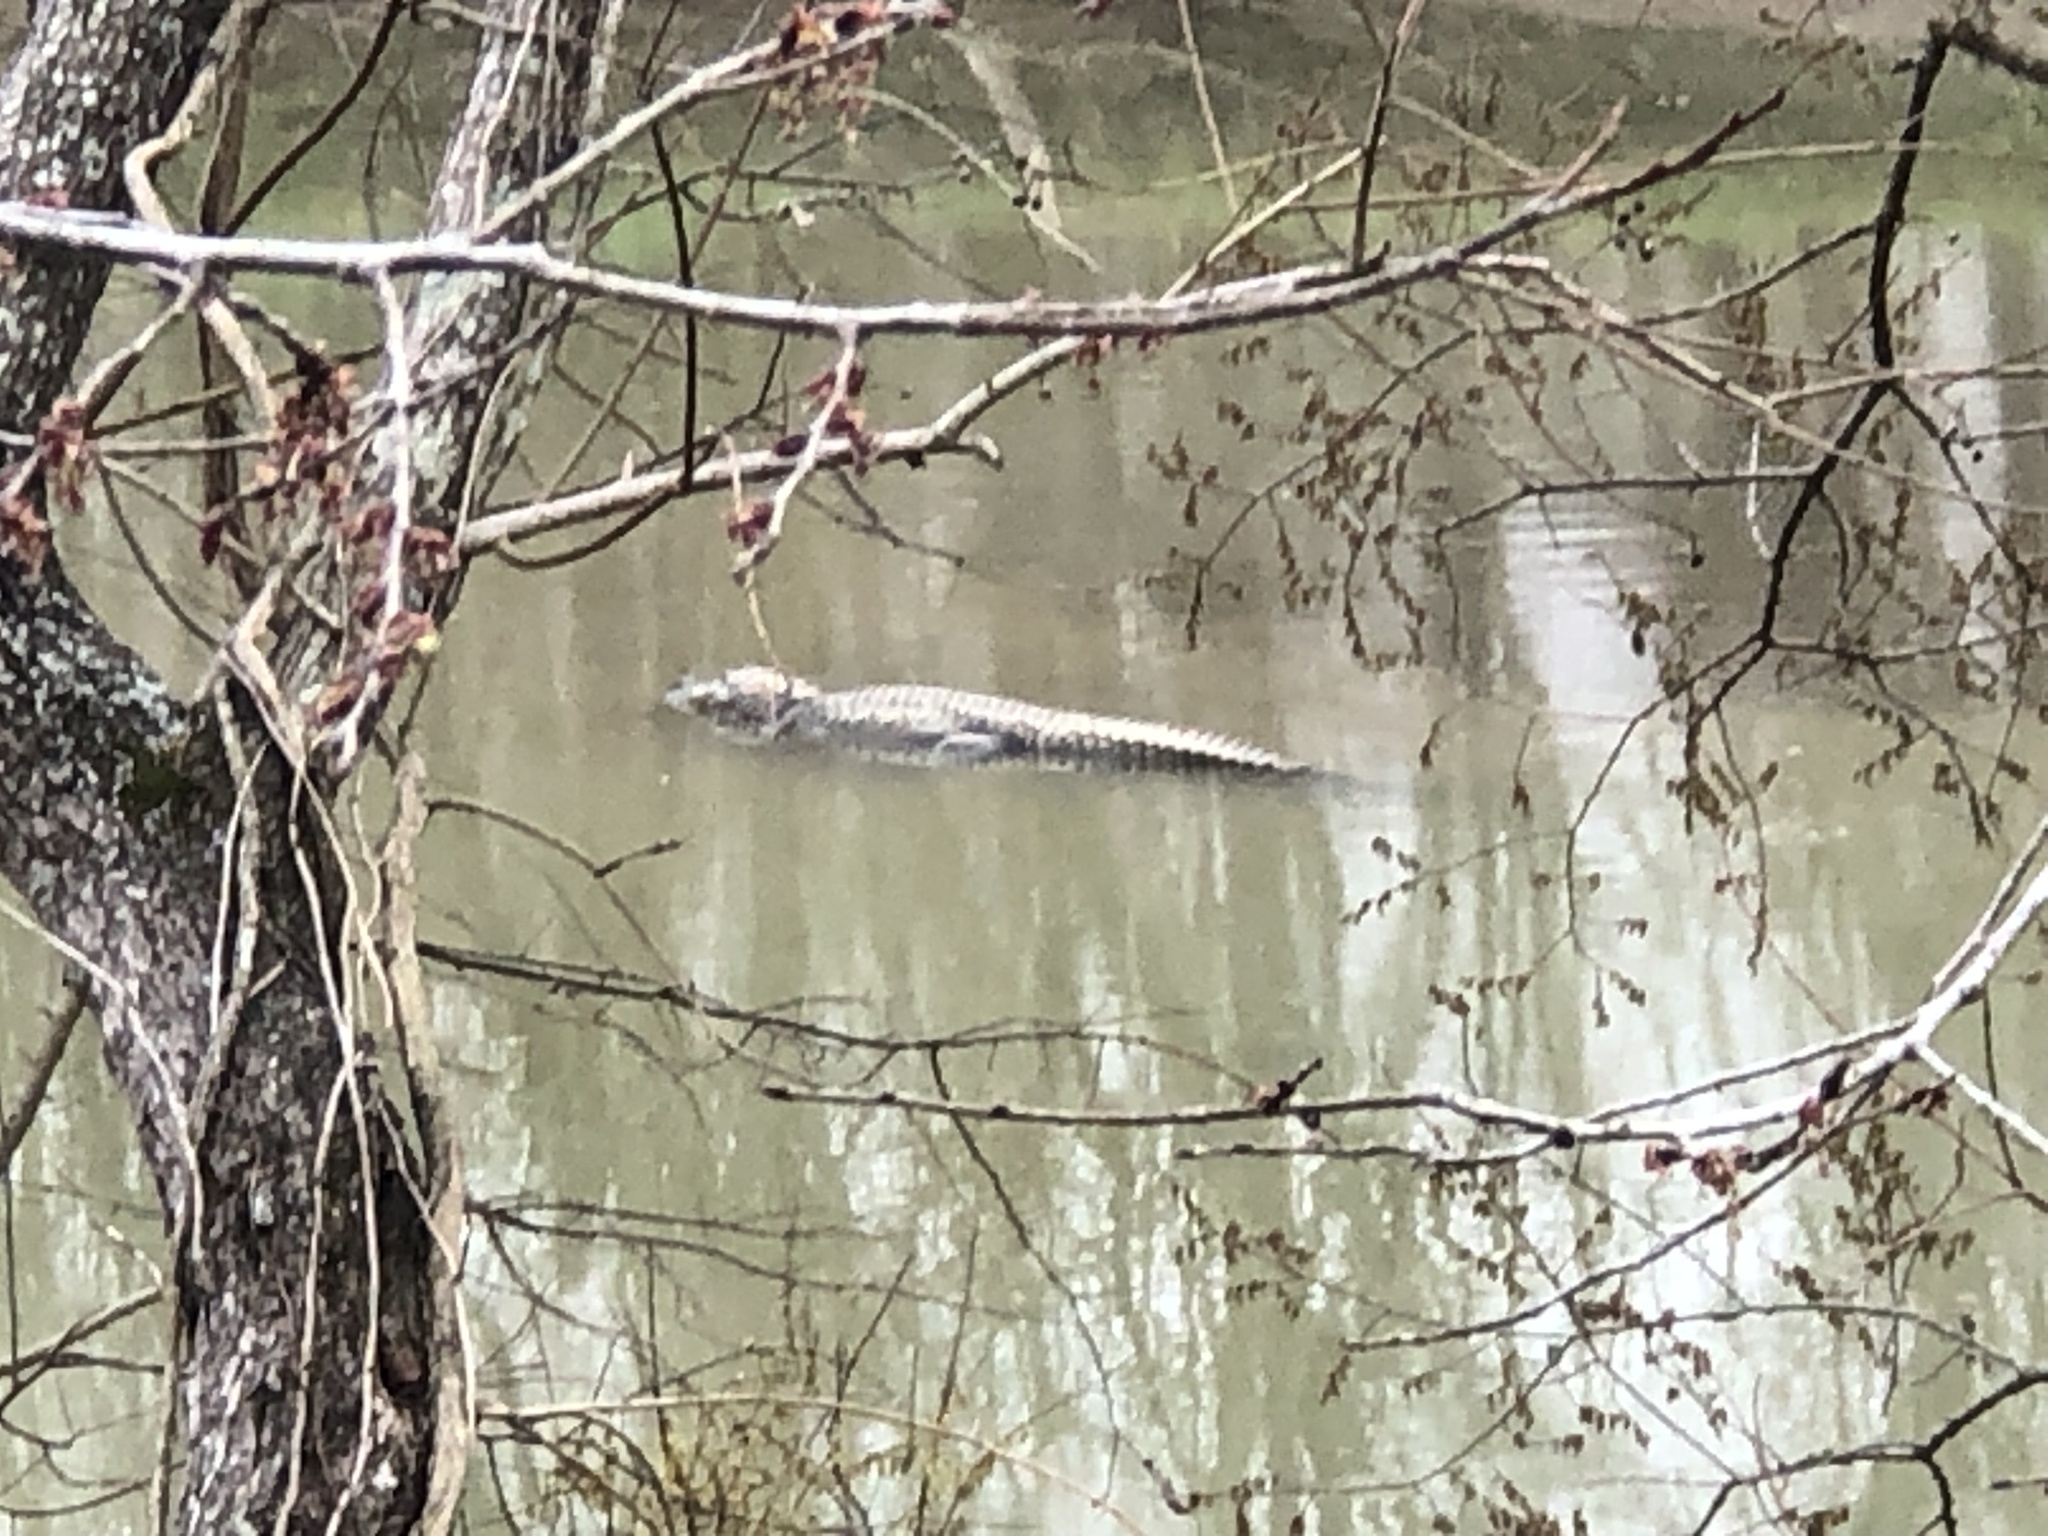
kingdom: Animalia
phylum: Chordata
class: Crocodylia
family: Alligatoridae
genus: Alligator
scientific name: Alligator mississippiensis
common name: American alligator
